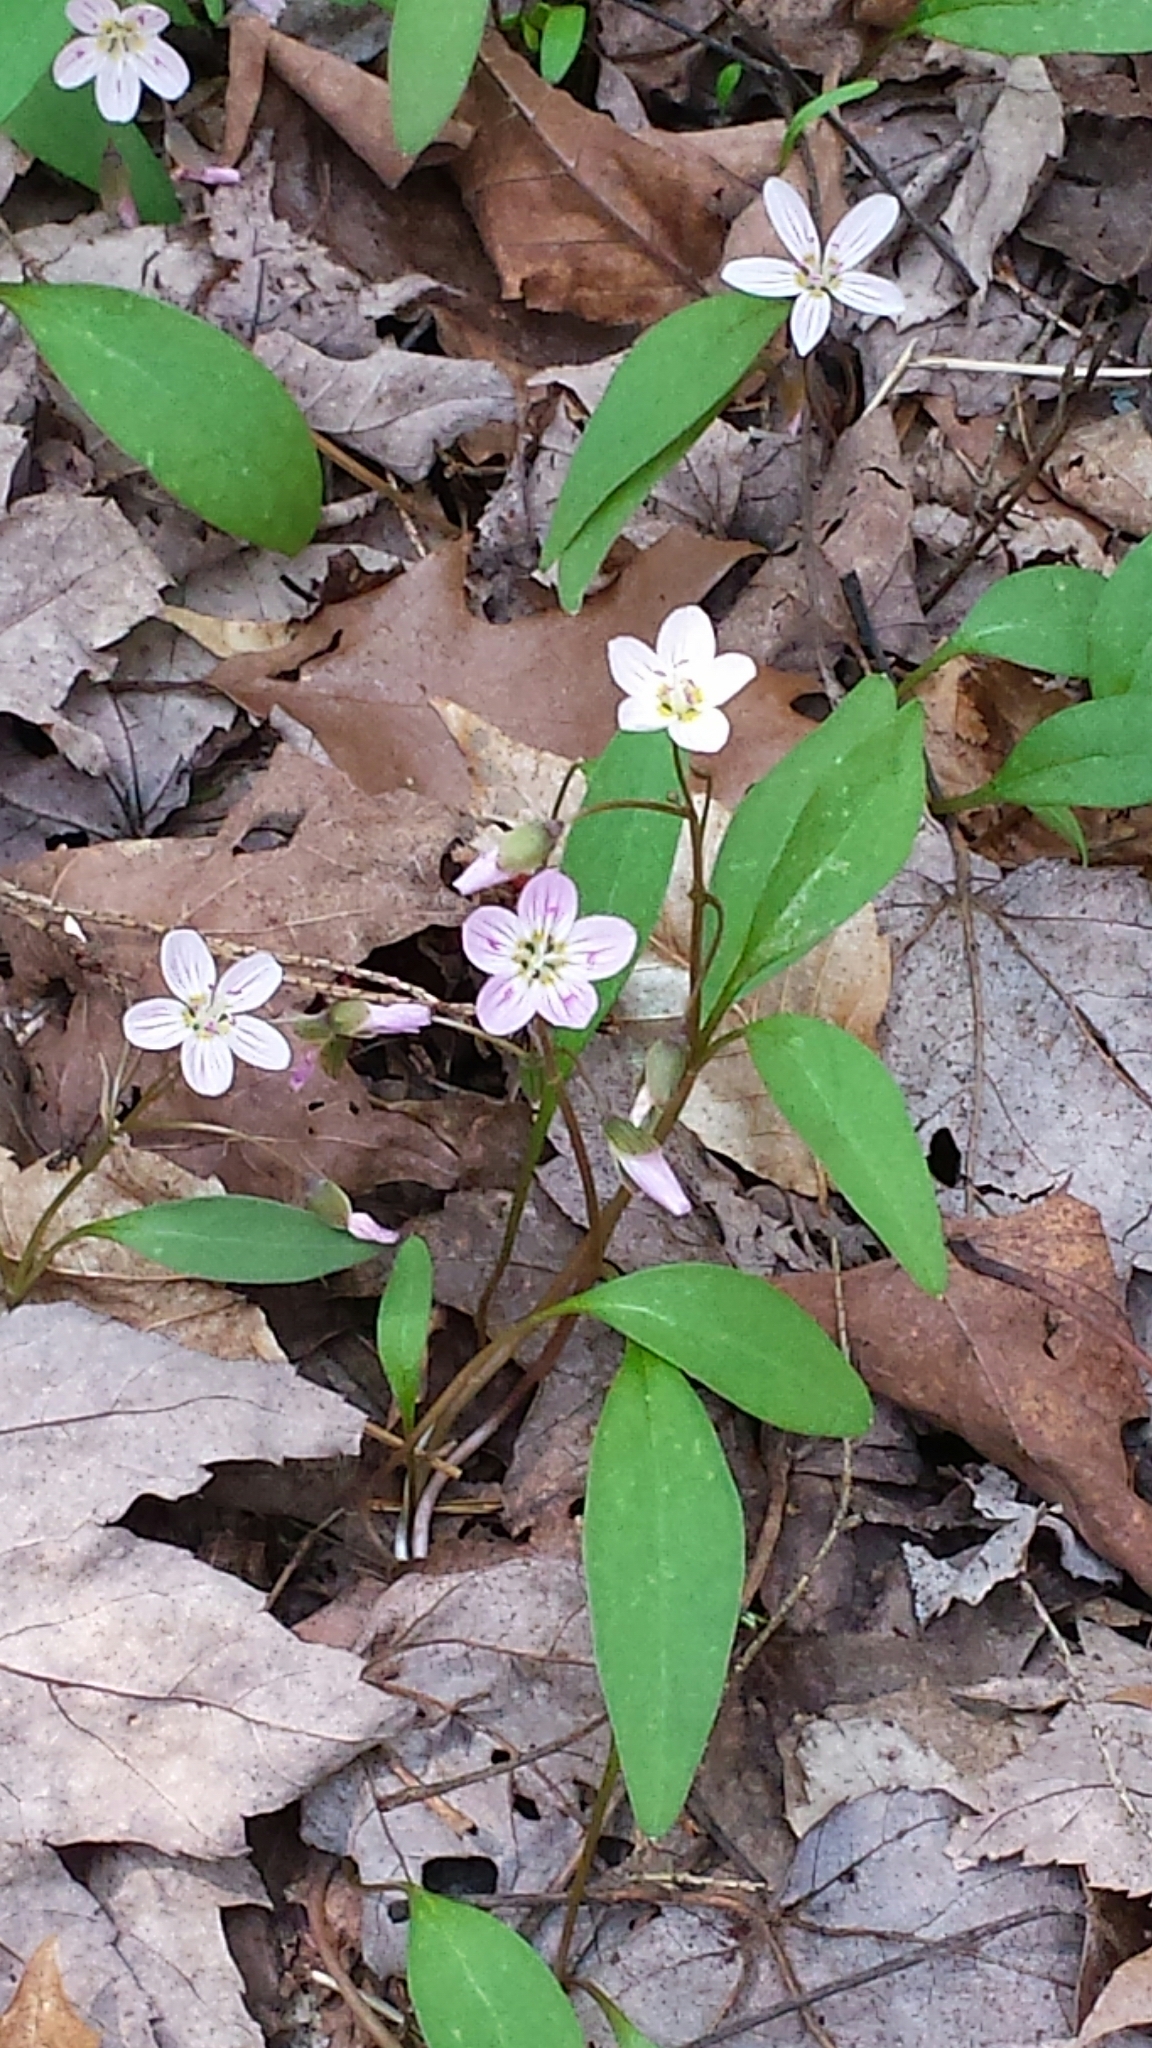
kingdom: Plantae
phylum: Tracheophyta
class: Magnoliopsida
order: Caryophyllales
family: Montiaceae
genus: Claytonia
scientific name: Claytonia caroliniana
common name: Carolina spring beauty
